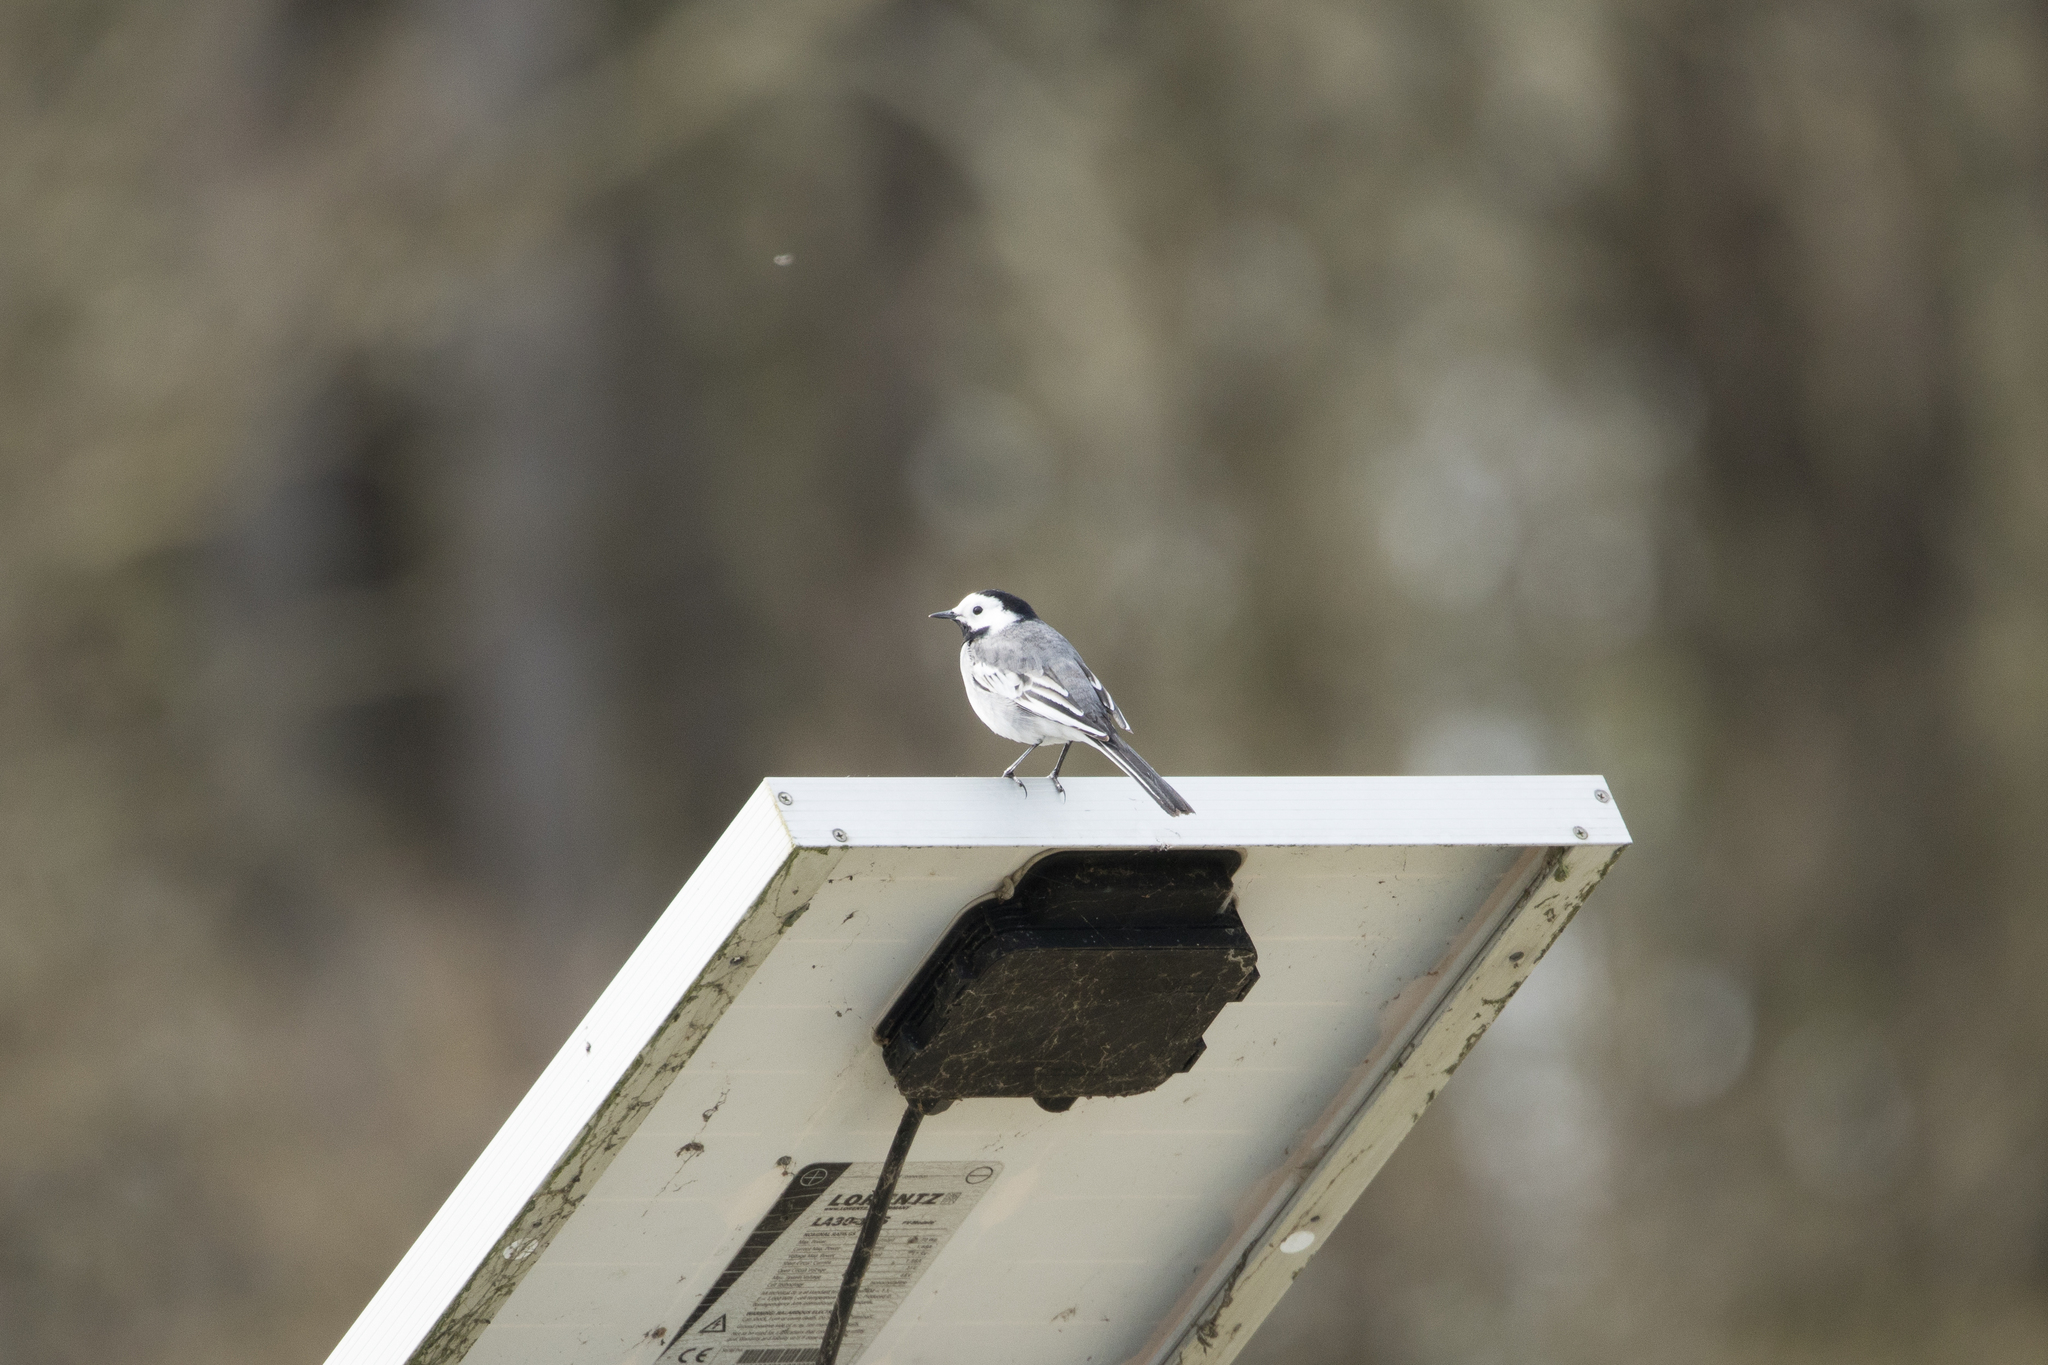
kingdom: Animalia
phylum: Chordata
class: Aves
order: Passeriformes
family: Motacillidae
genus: Motacilla
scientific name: Motacilla alba
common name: White wagtail
